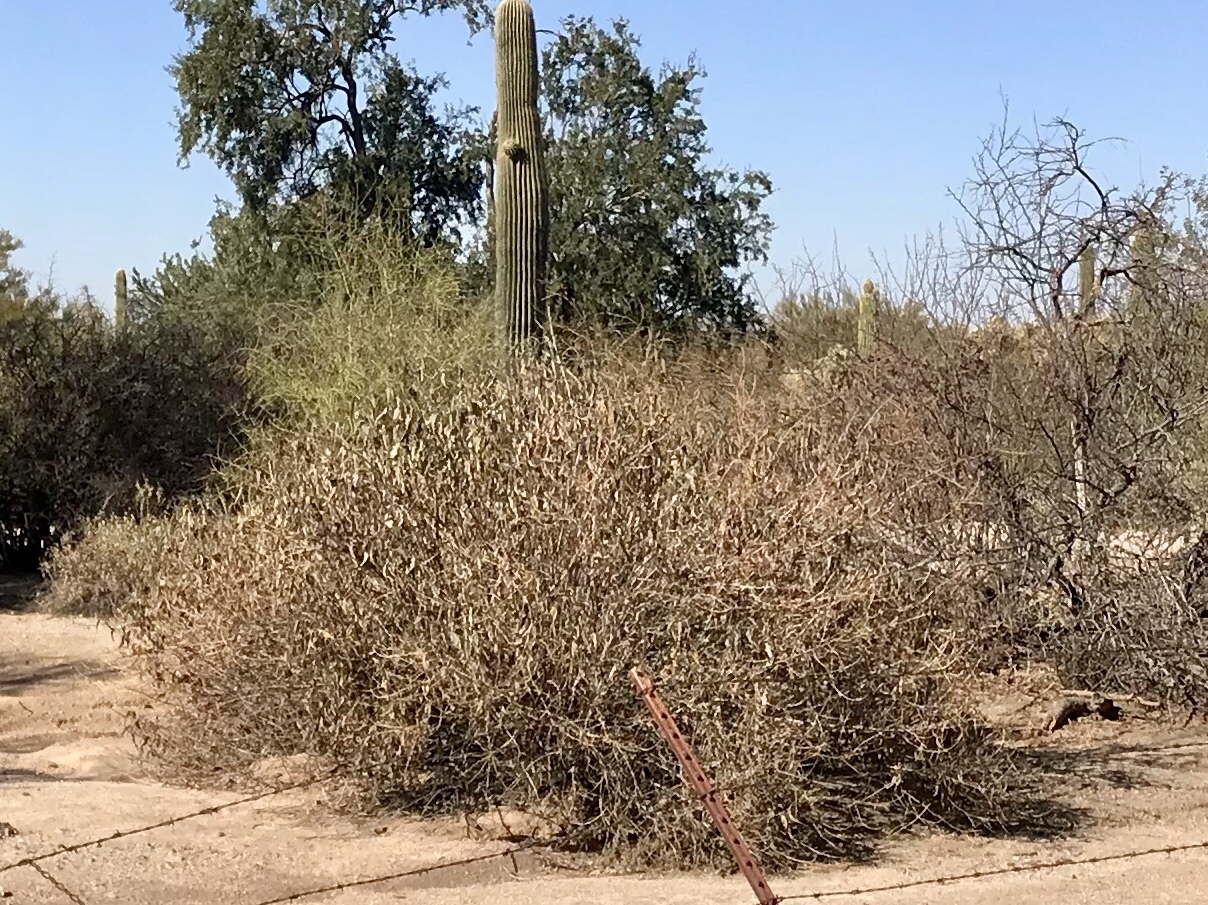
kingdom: Plantae
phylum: Tracheophyta
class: Magnoliopsida
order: Asterales
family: Asteraceae
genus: Ambrosia
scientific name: Ambrosia ambrosioides
